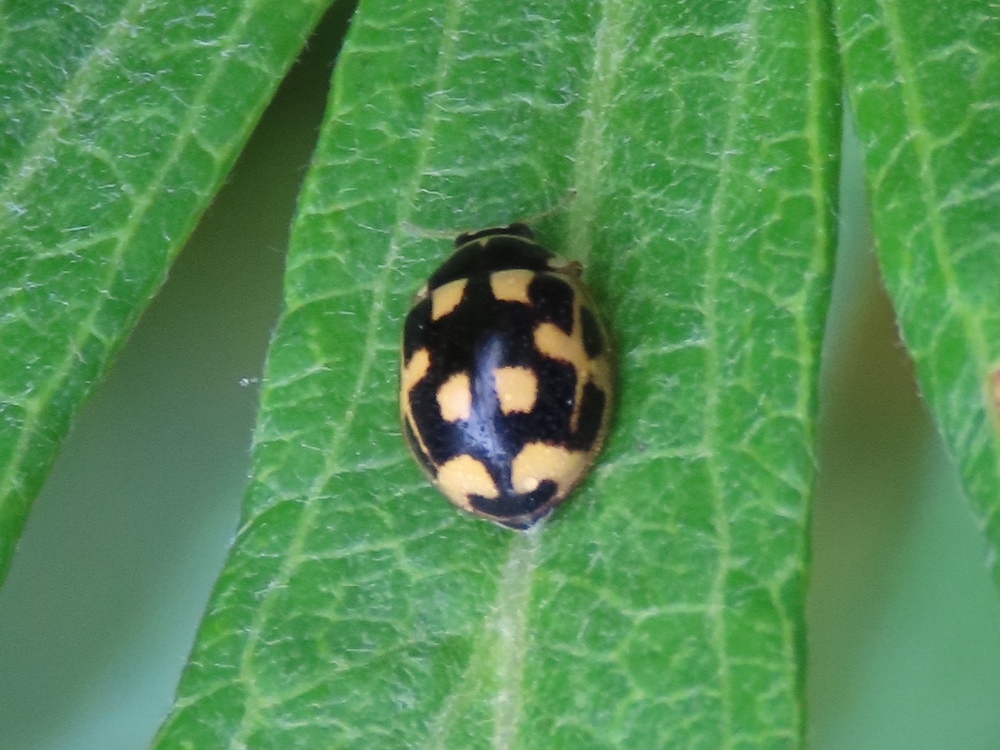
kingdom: Animalia
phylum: Arthropoda
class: Insecta
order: Coleoptera
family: Coccinellidae
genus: Propylaea
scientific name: Propylaea quatuordecimpunctata
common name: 14-spotted ladybird beetle
